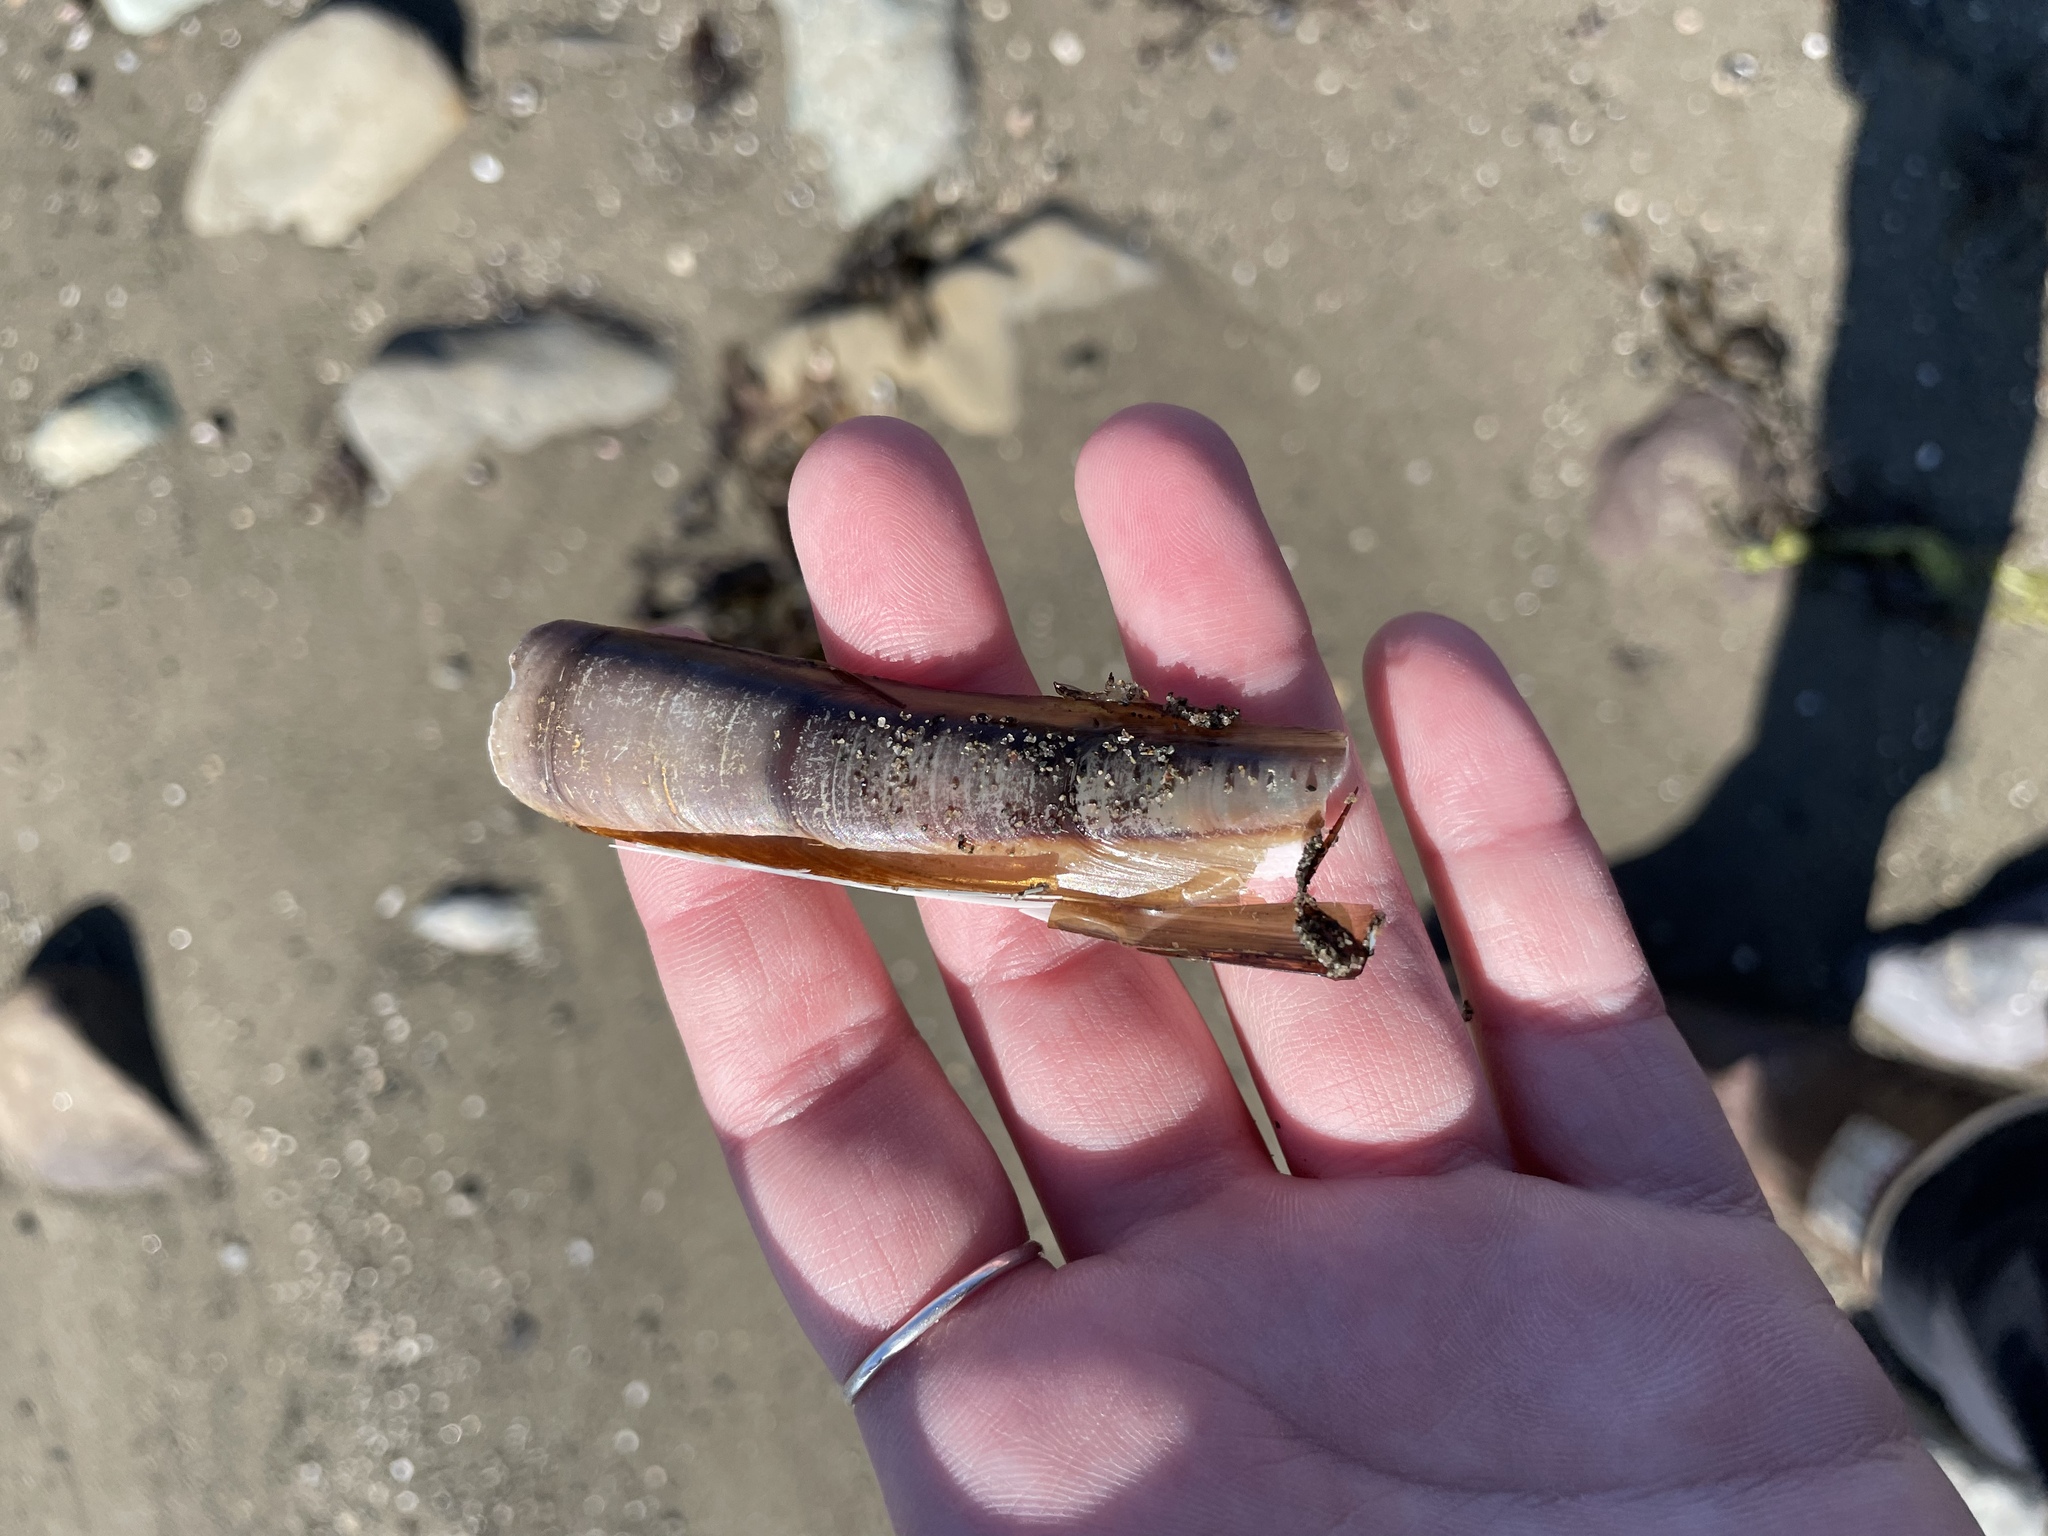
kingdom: Animalia
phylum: Mollusca
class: Bivalvia
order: Adapedonta
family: Pharidae
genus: Ensis
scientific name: Ensis leei
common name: American jack knife clam
